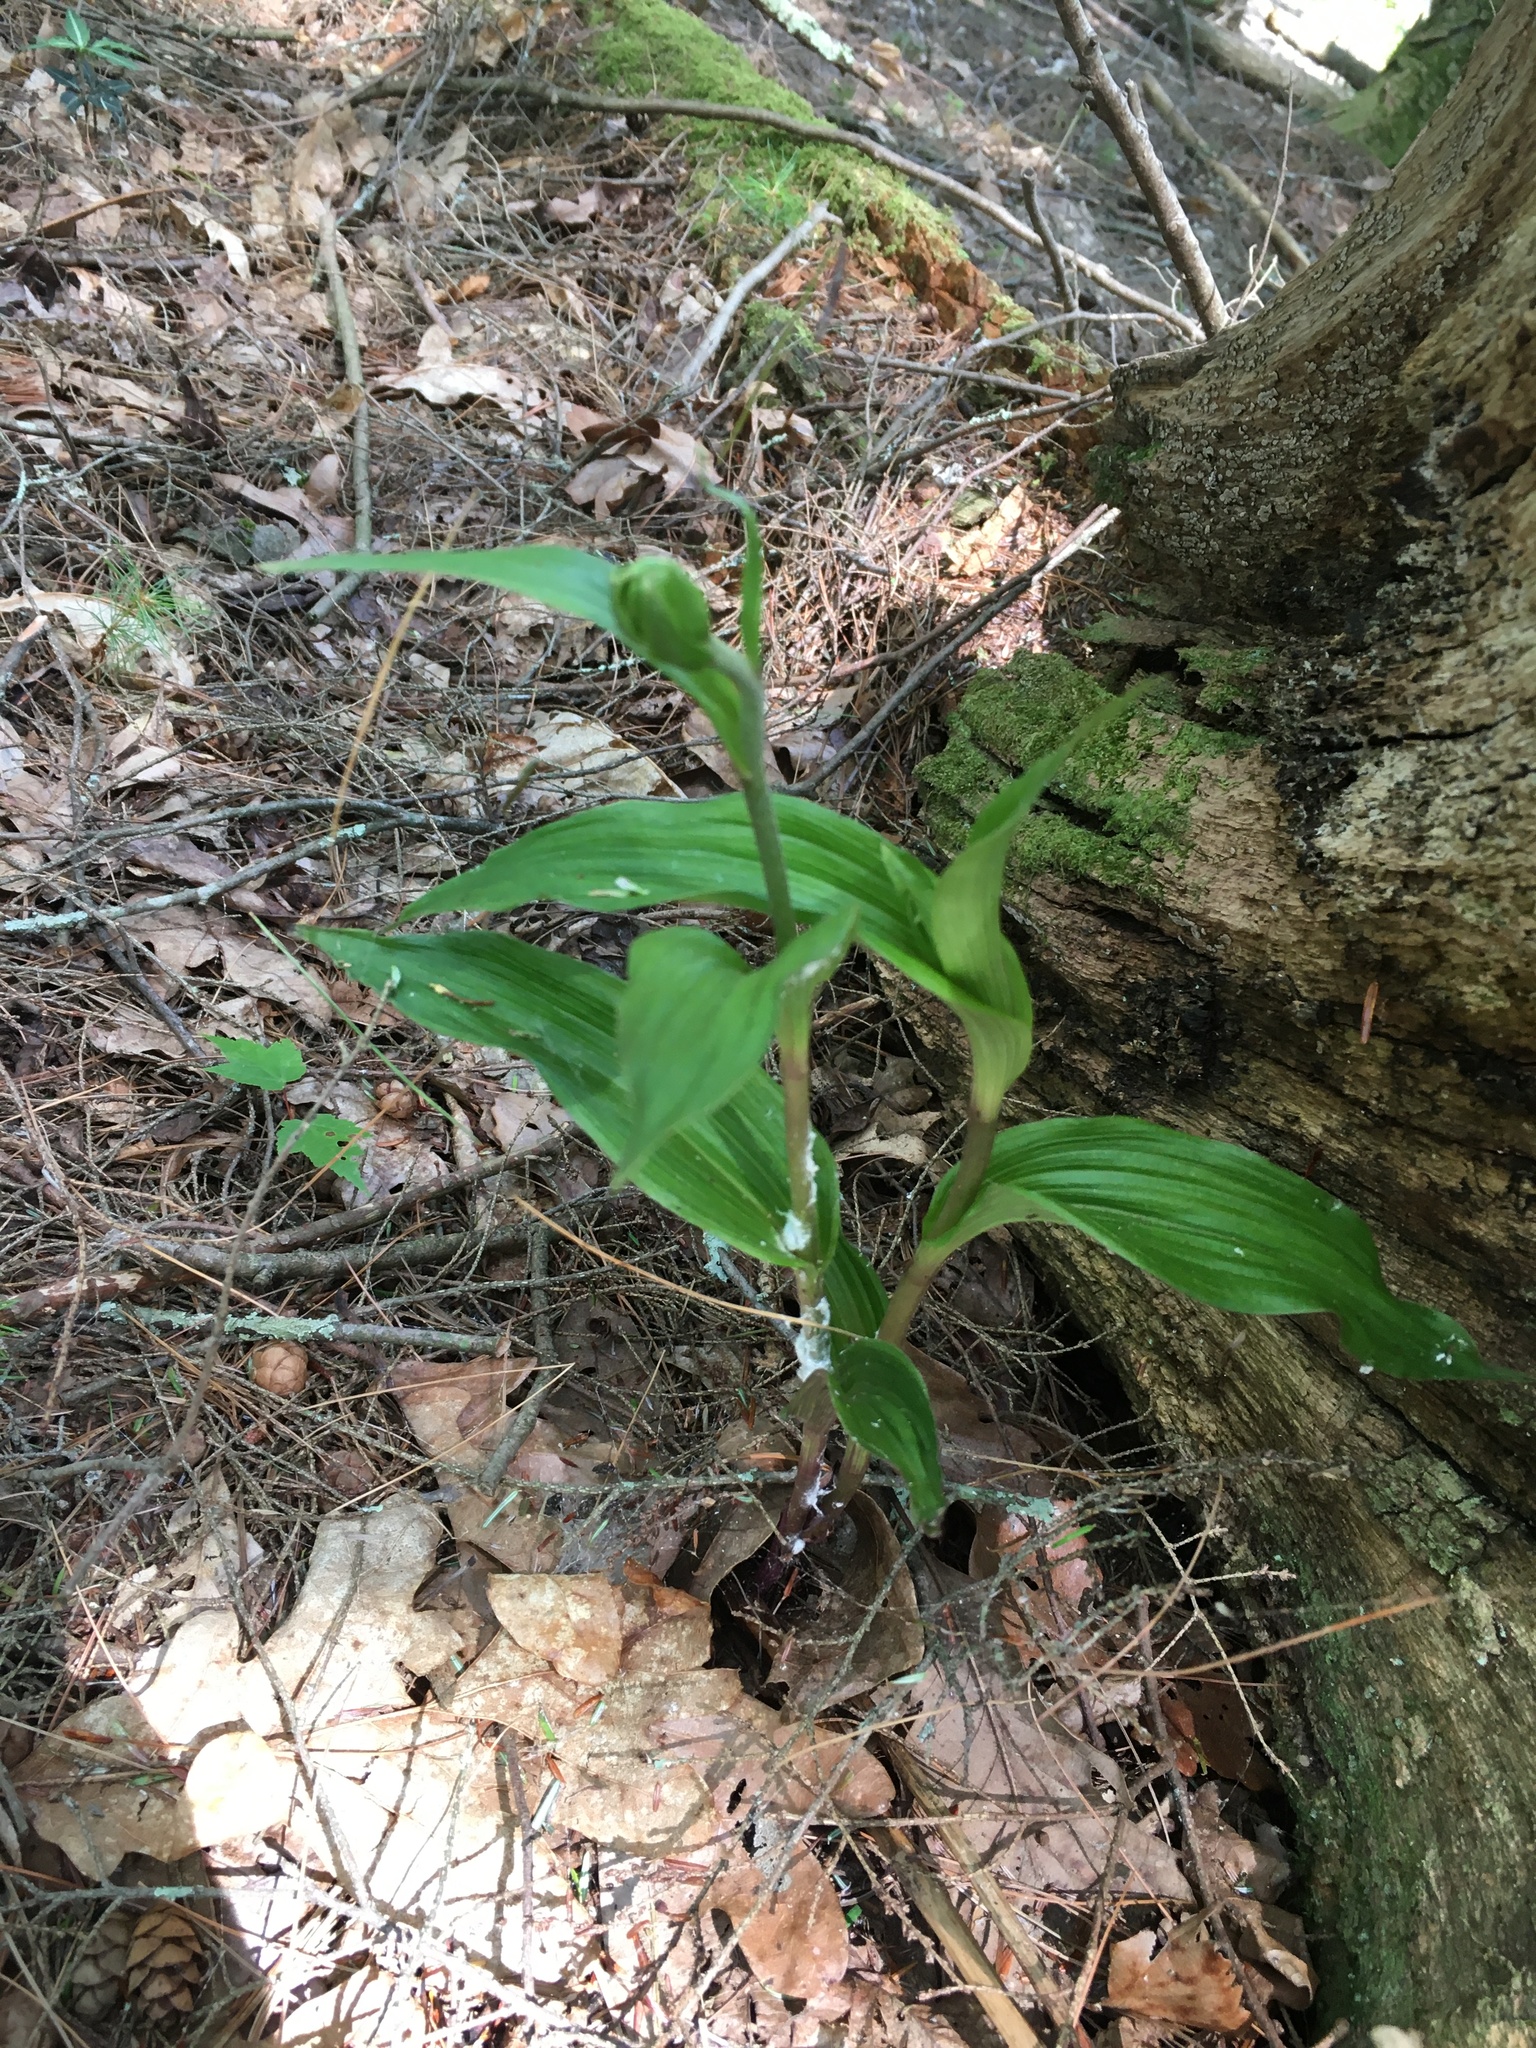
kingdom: Plantae
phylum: Tracheophyta
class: Liliopsida
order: Asparagales
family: Orchidaceae
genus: Epipactis
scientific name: Epipactis helleborine
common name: Broad-leaved helleborine
